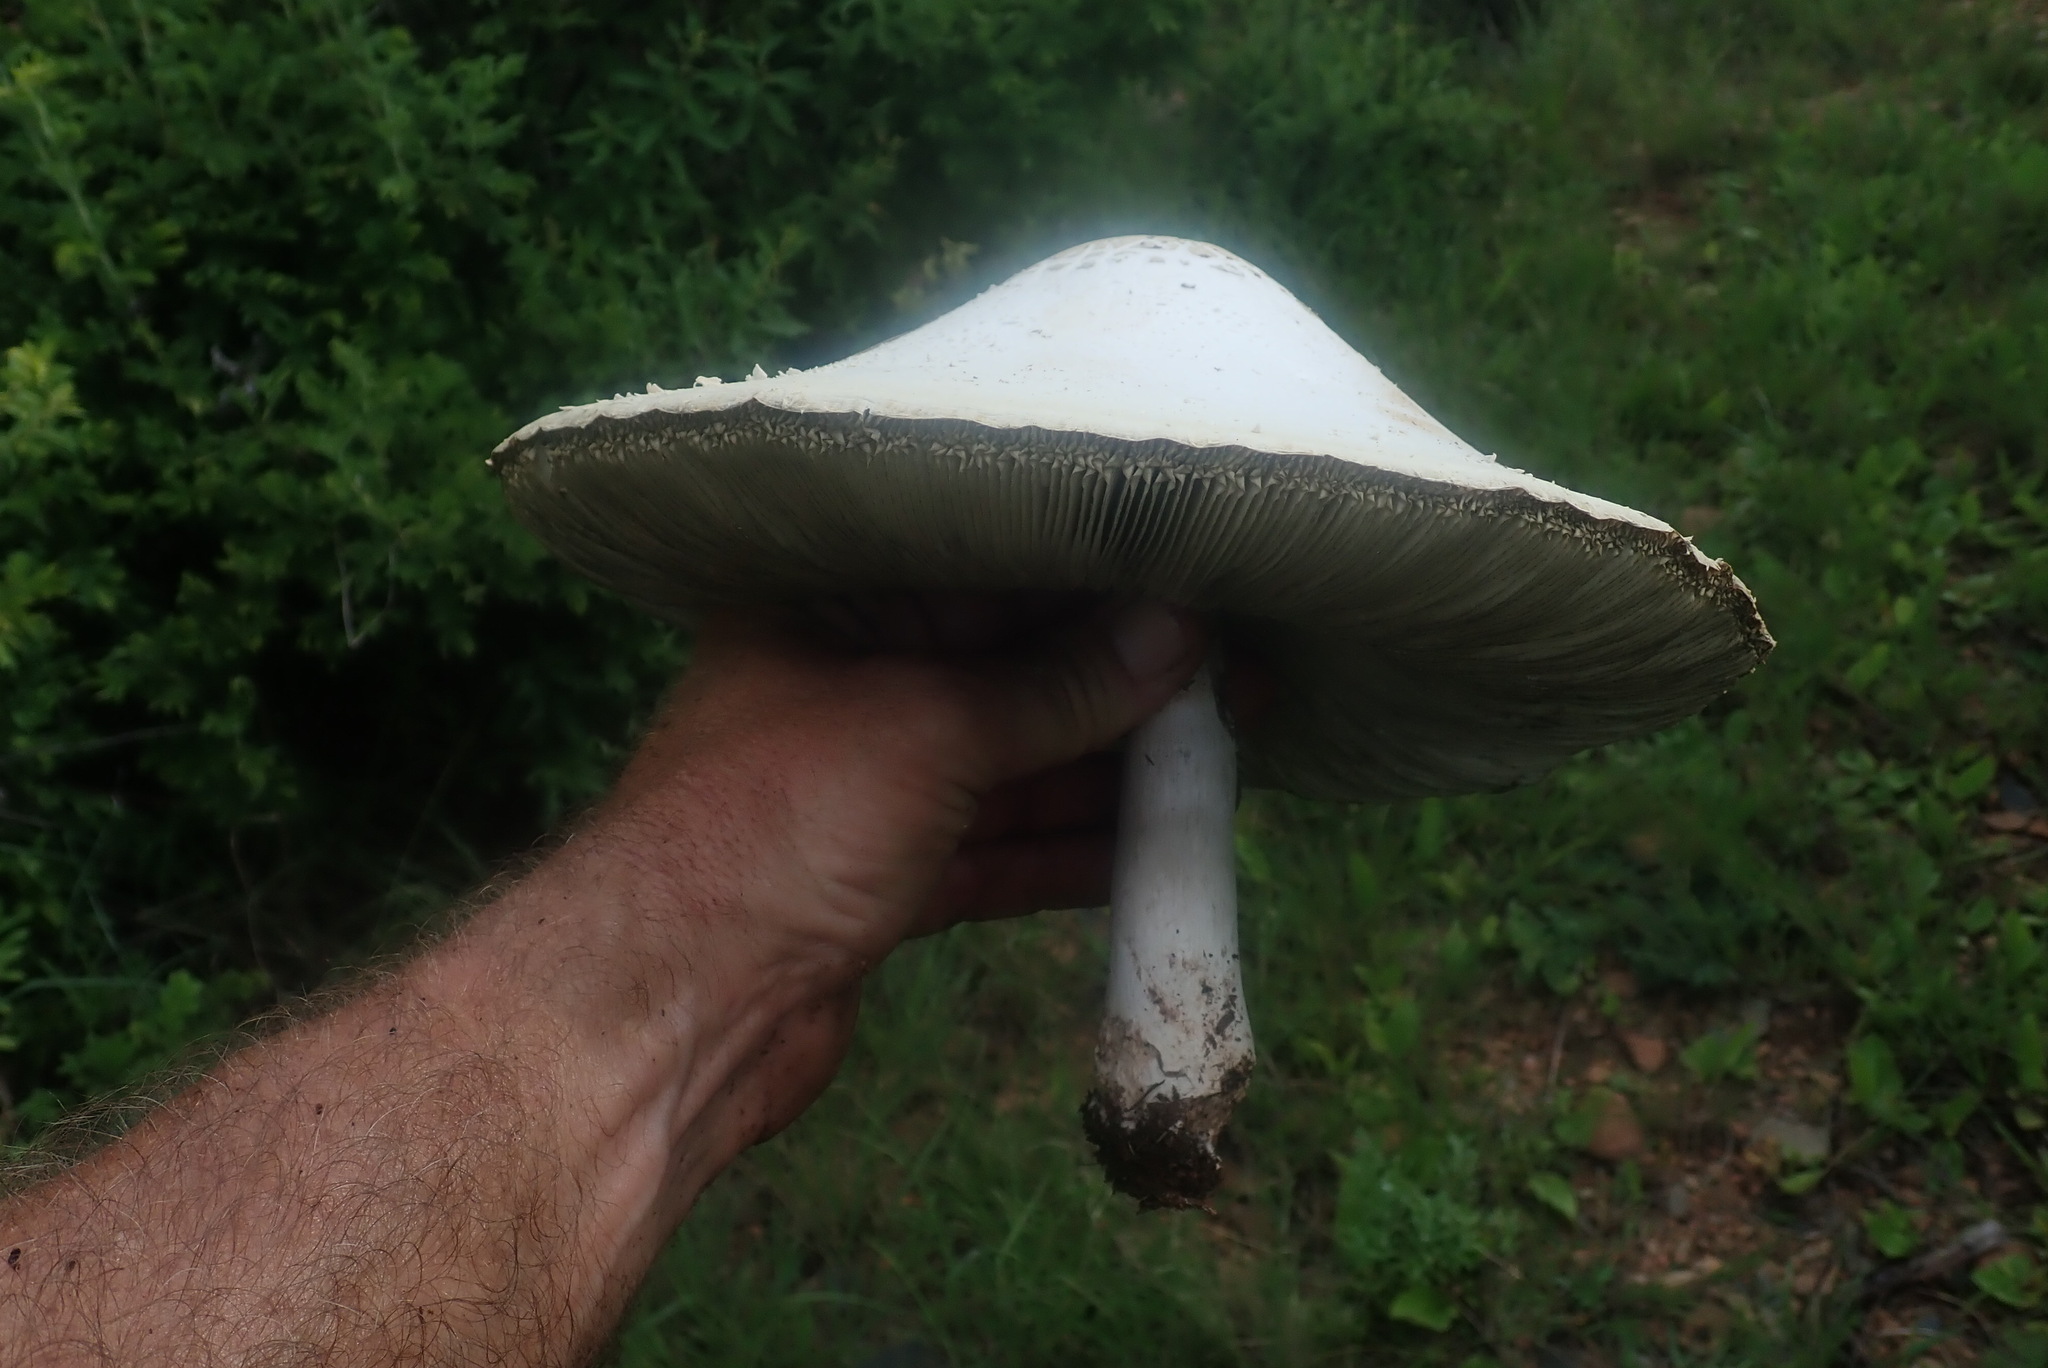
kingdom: Fungi
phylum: Basidiomycota
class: Agaricomycetes
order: Agaricales
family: Agaricaceae
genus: Chlorophyllum
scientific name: Chlorophyllum molybdites
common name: False parasol
